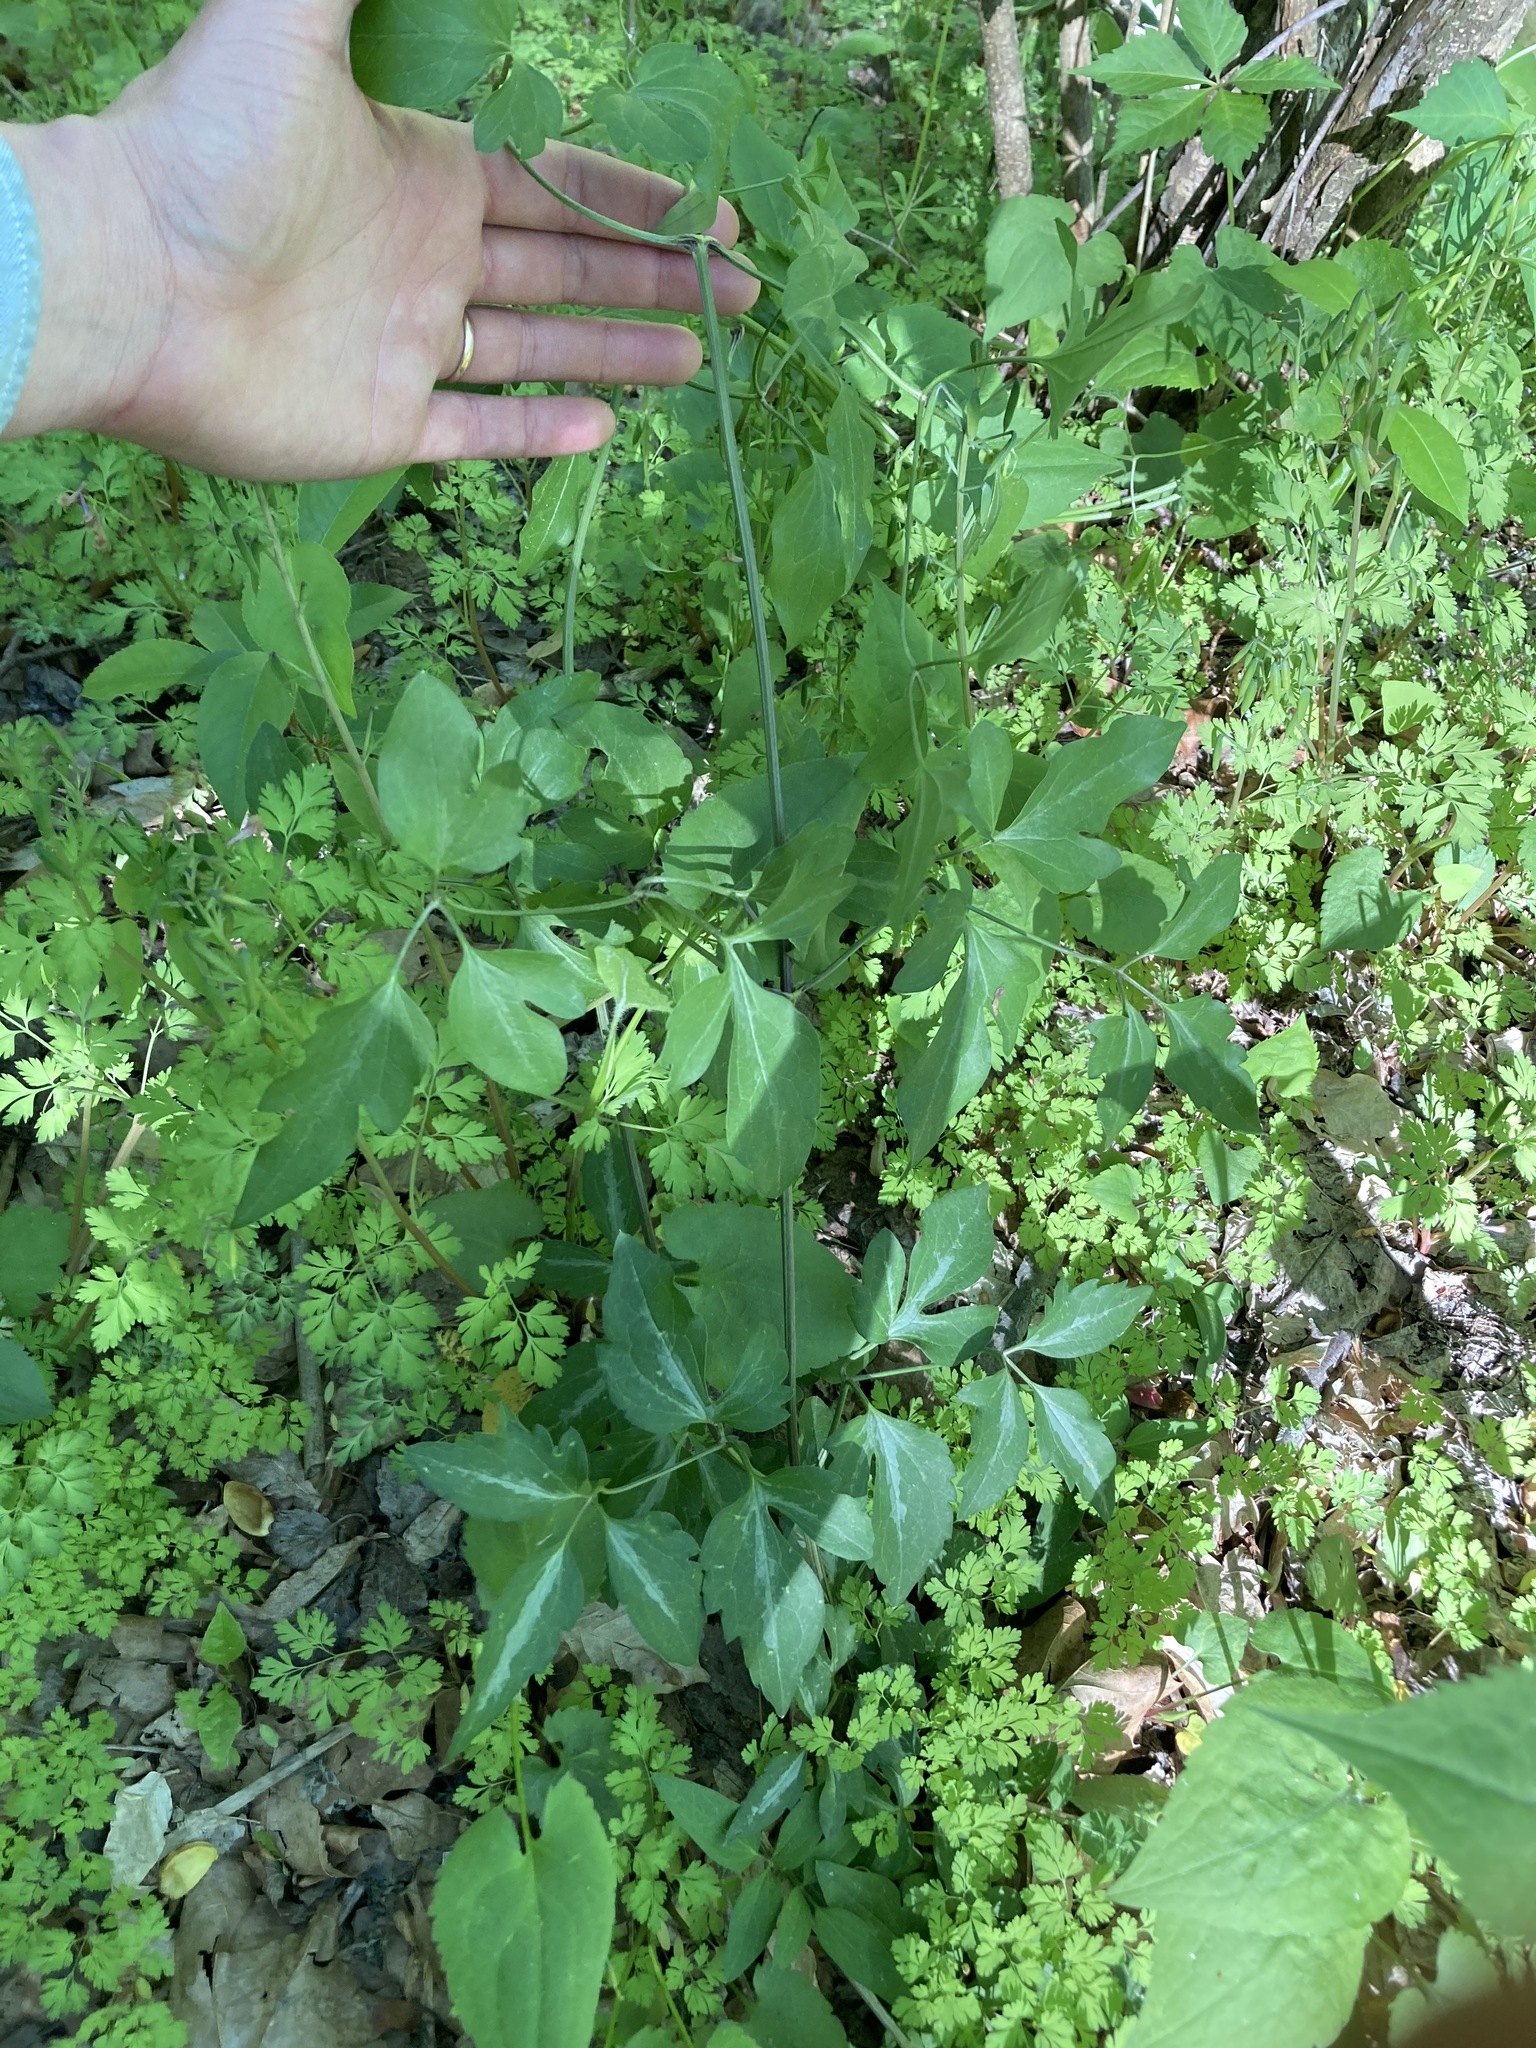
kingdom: Plantae
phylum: Tracheophyta
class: Magnoliopsida
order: Ranunculales
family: Ranunculaceae
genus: Clematis
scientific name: Clematis terniflora
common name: Sweet autumn clematis
